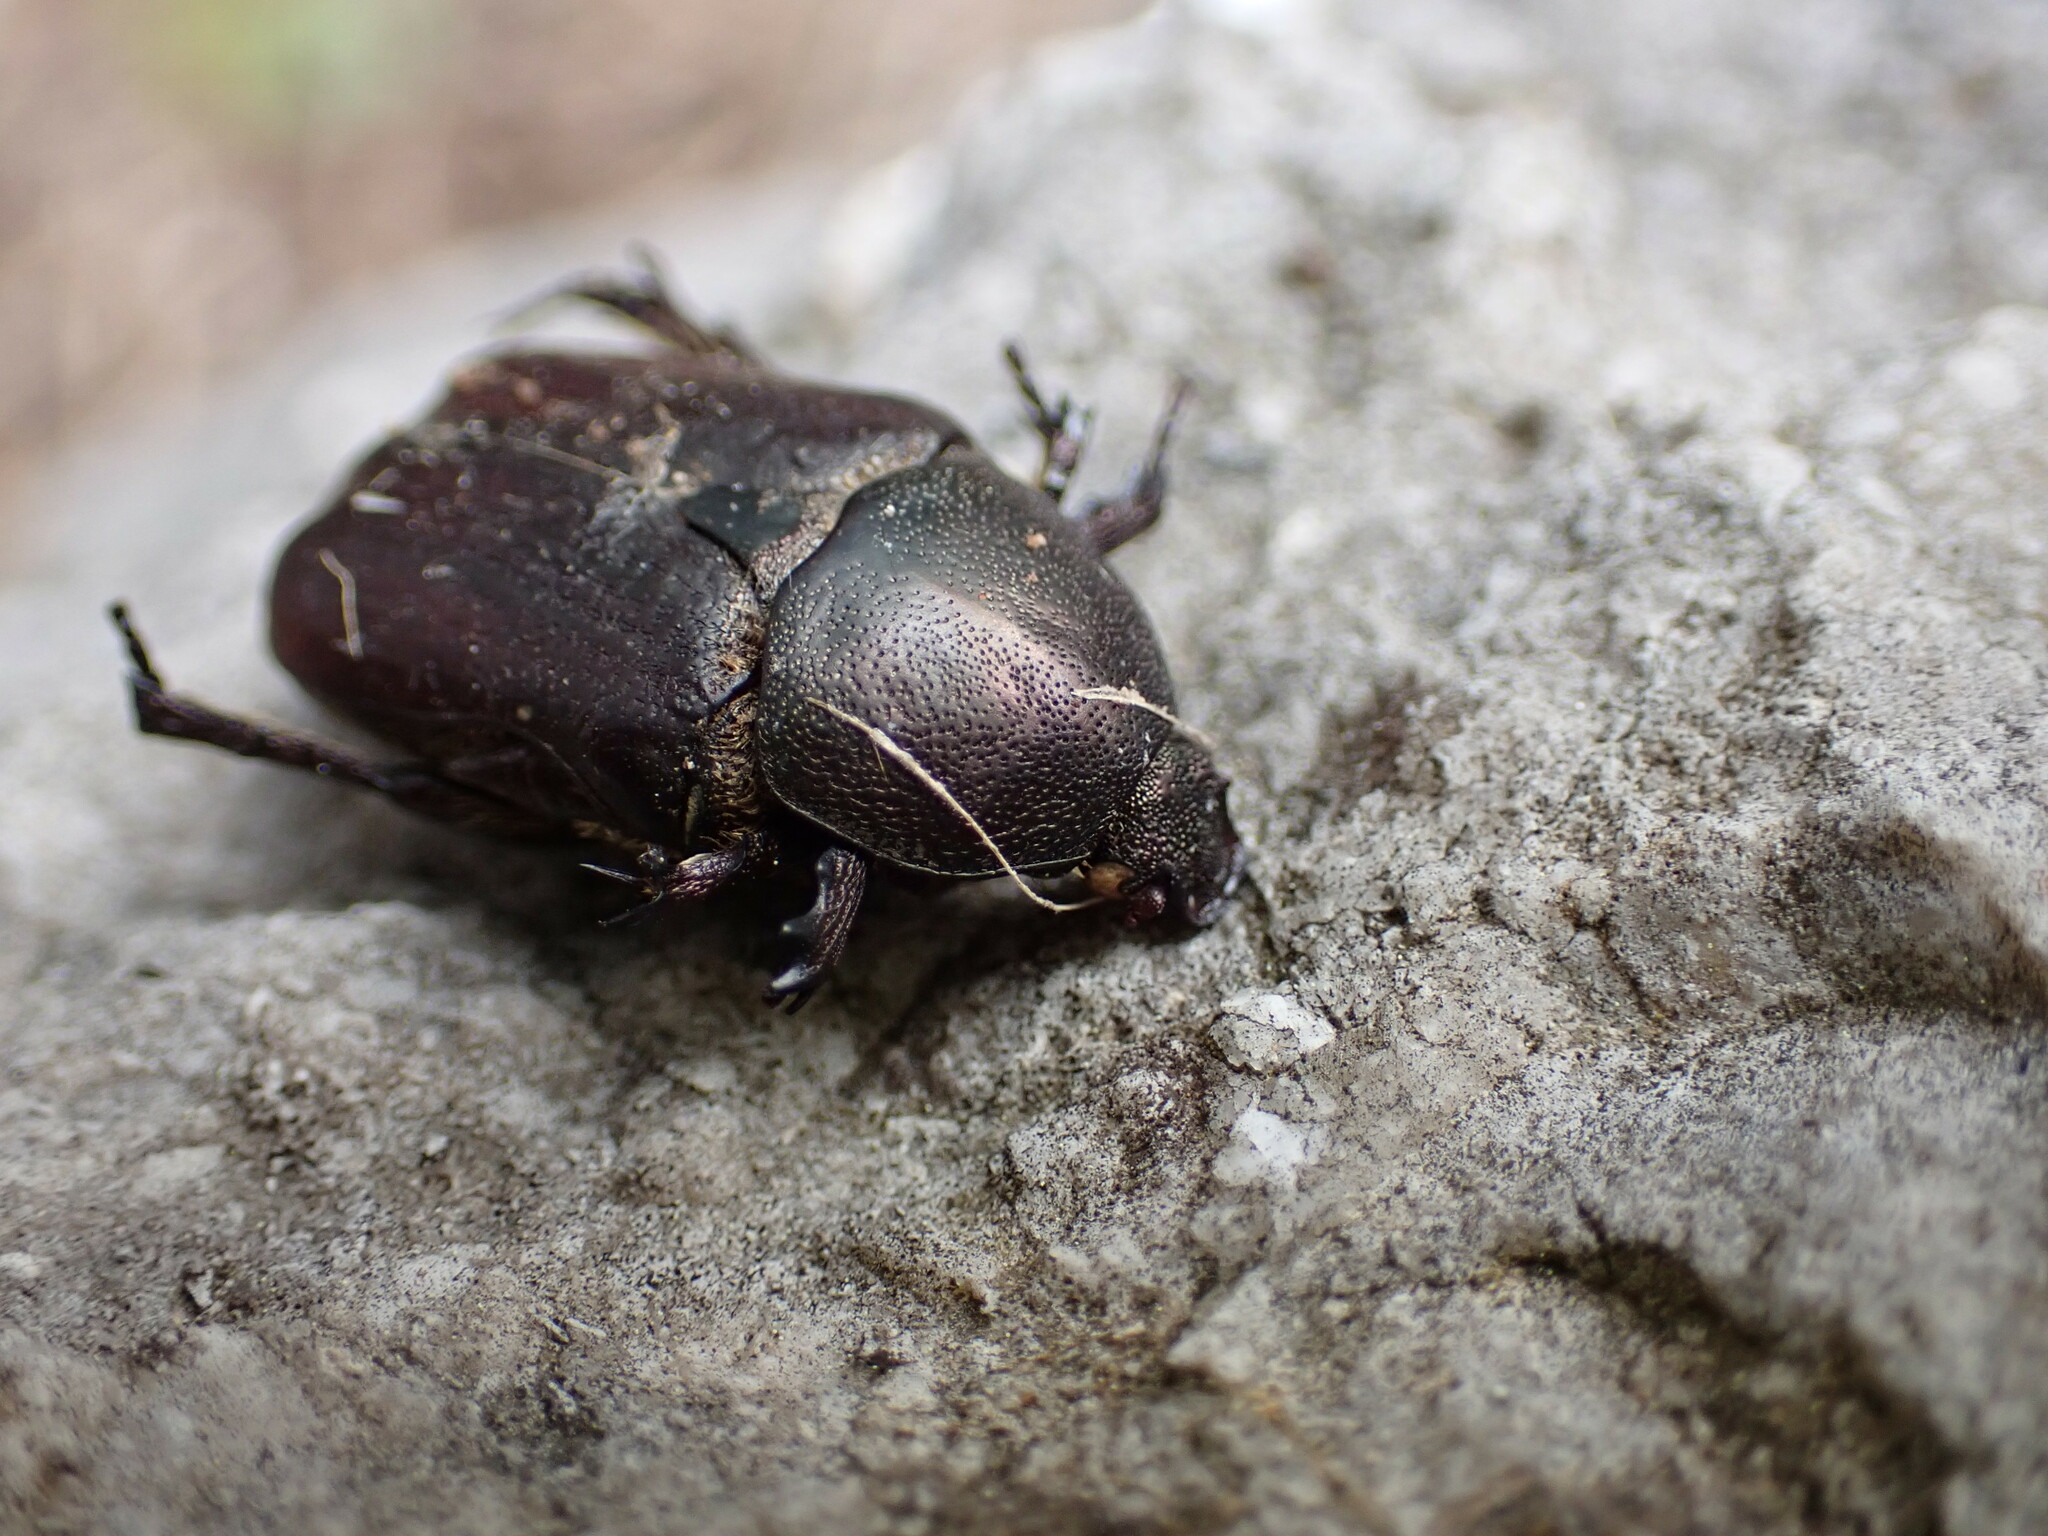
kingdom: Animalia
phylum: Arthropoda
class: Insecta
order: Coleoptera
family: Scarabaeidae
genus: Protaetia
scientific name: Protaetia oblonga
